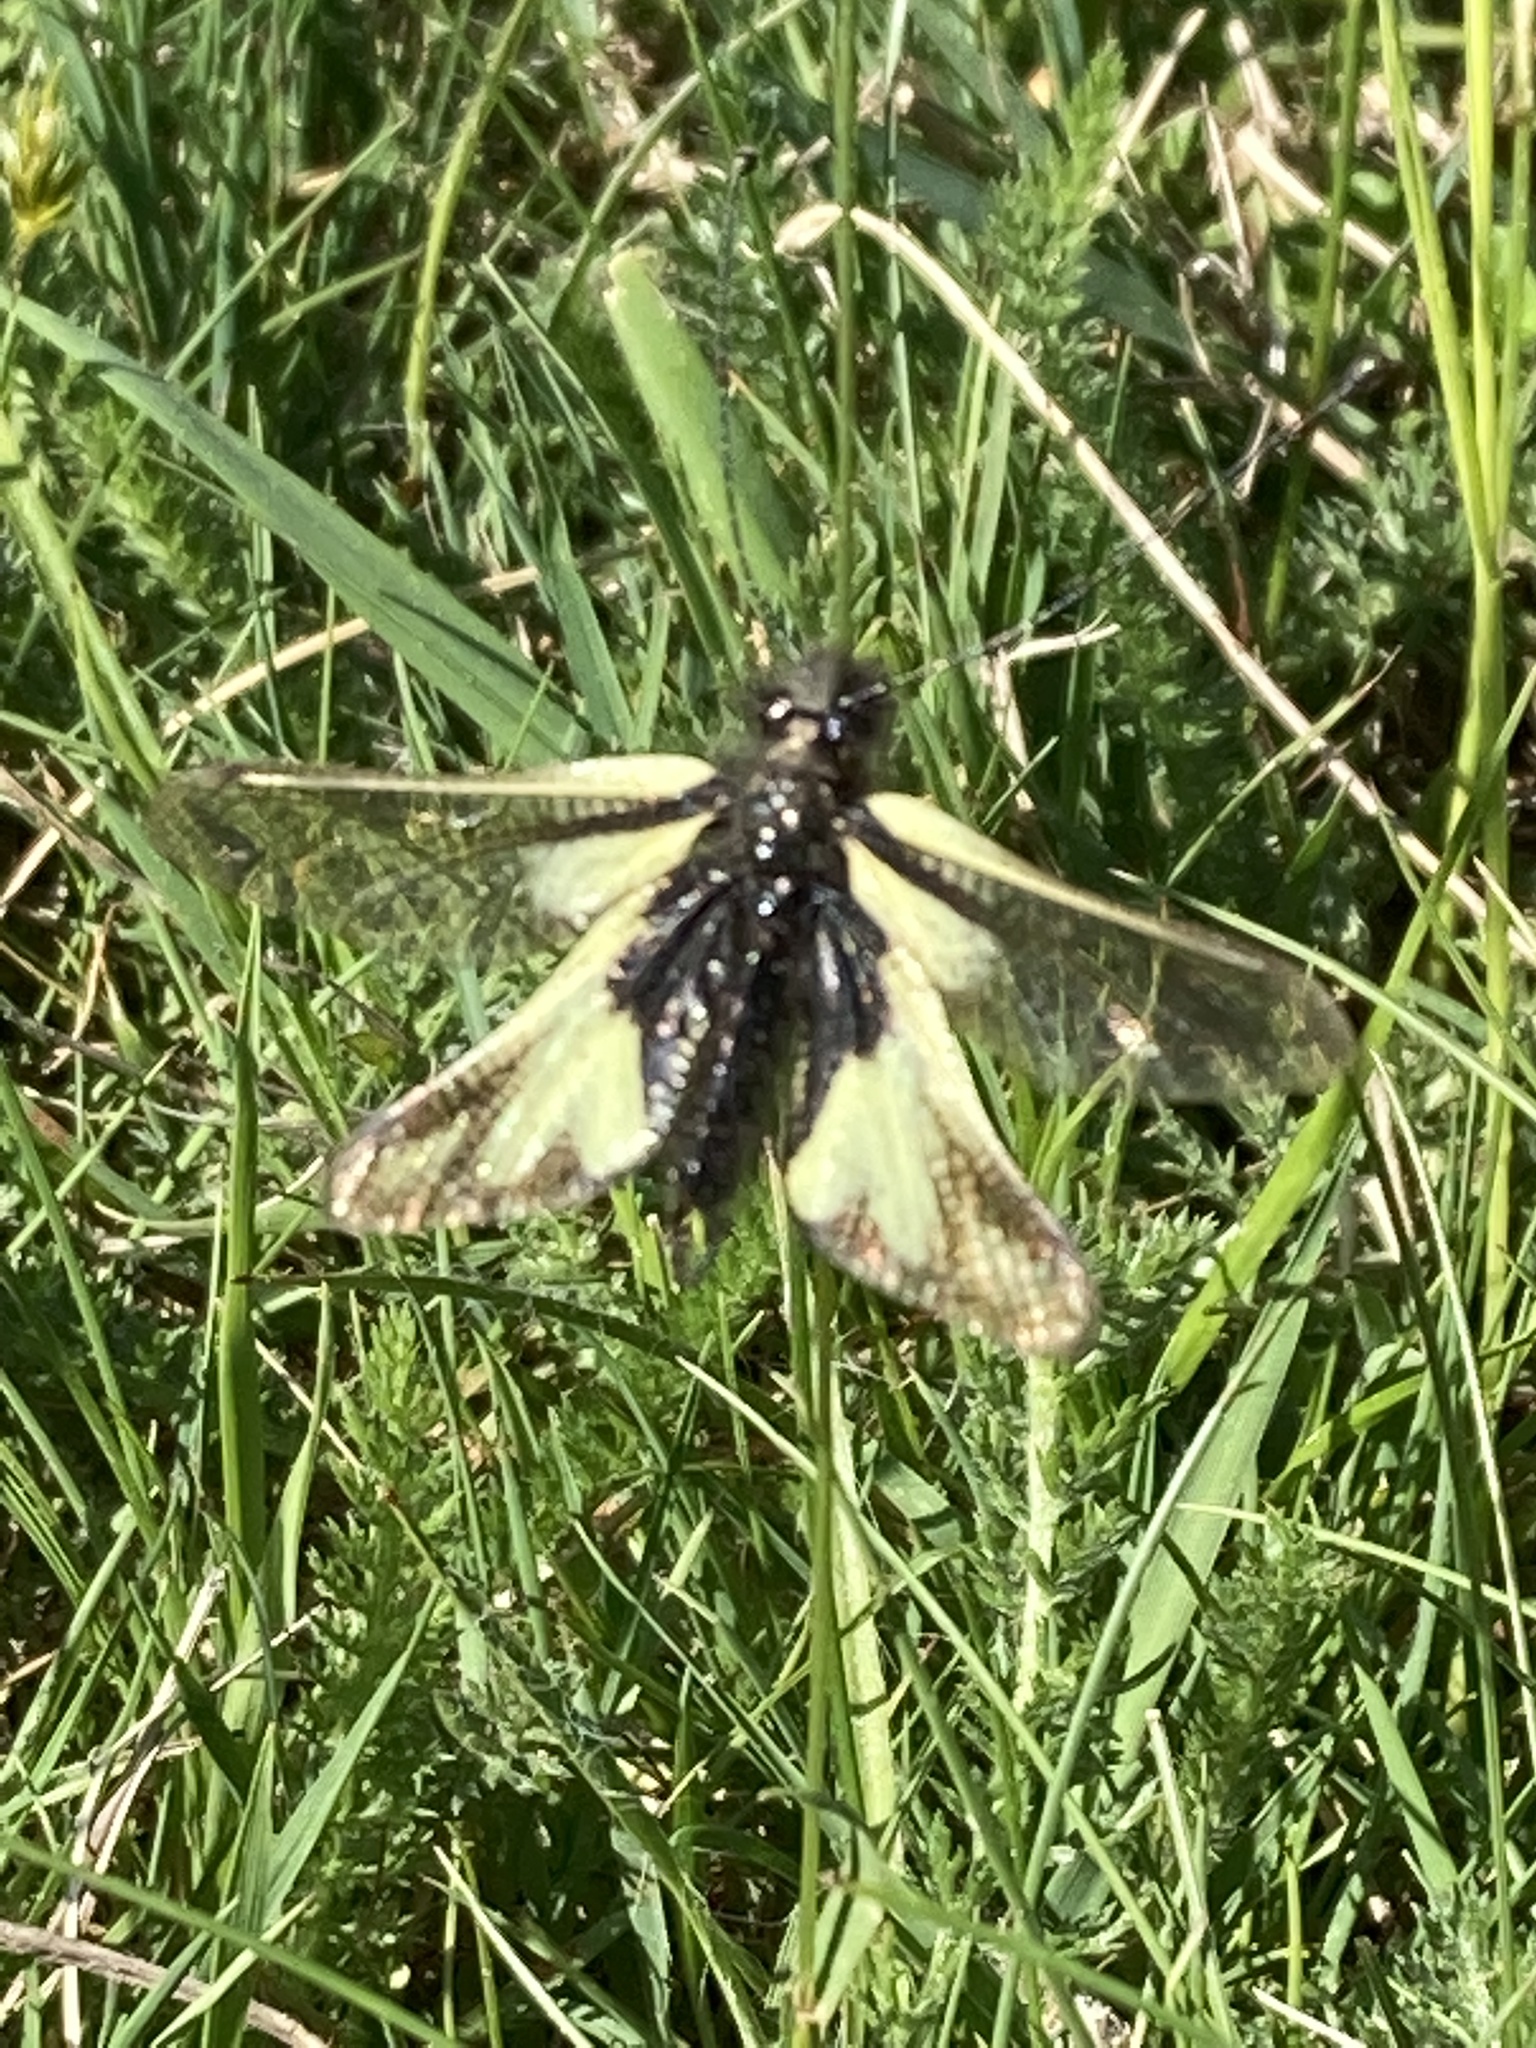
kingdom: Animalia
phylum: Arthropoda
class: Insecta
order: Neuroptera
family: Ascalaphidae
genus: Libelloides
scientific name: Libelloides coccajus
